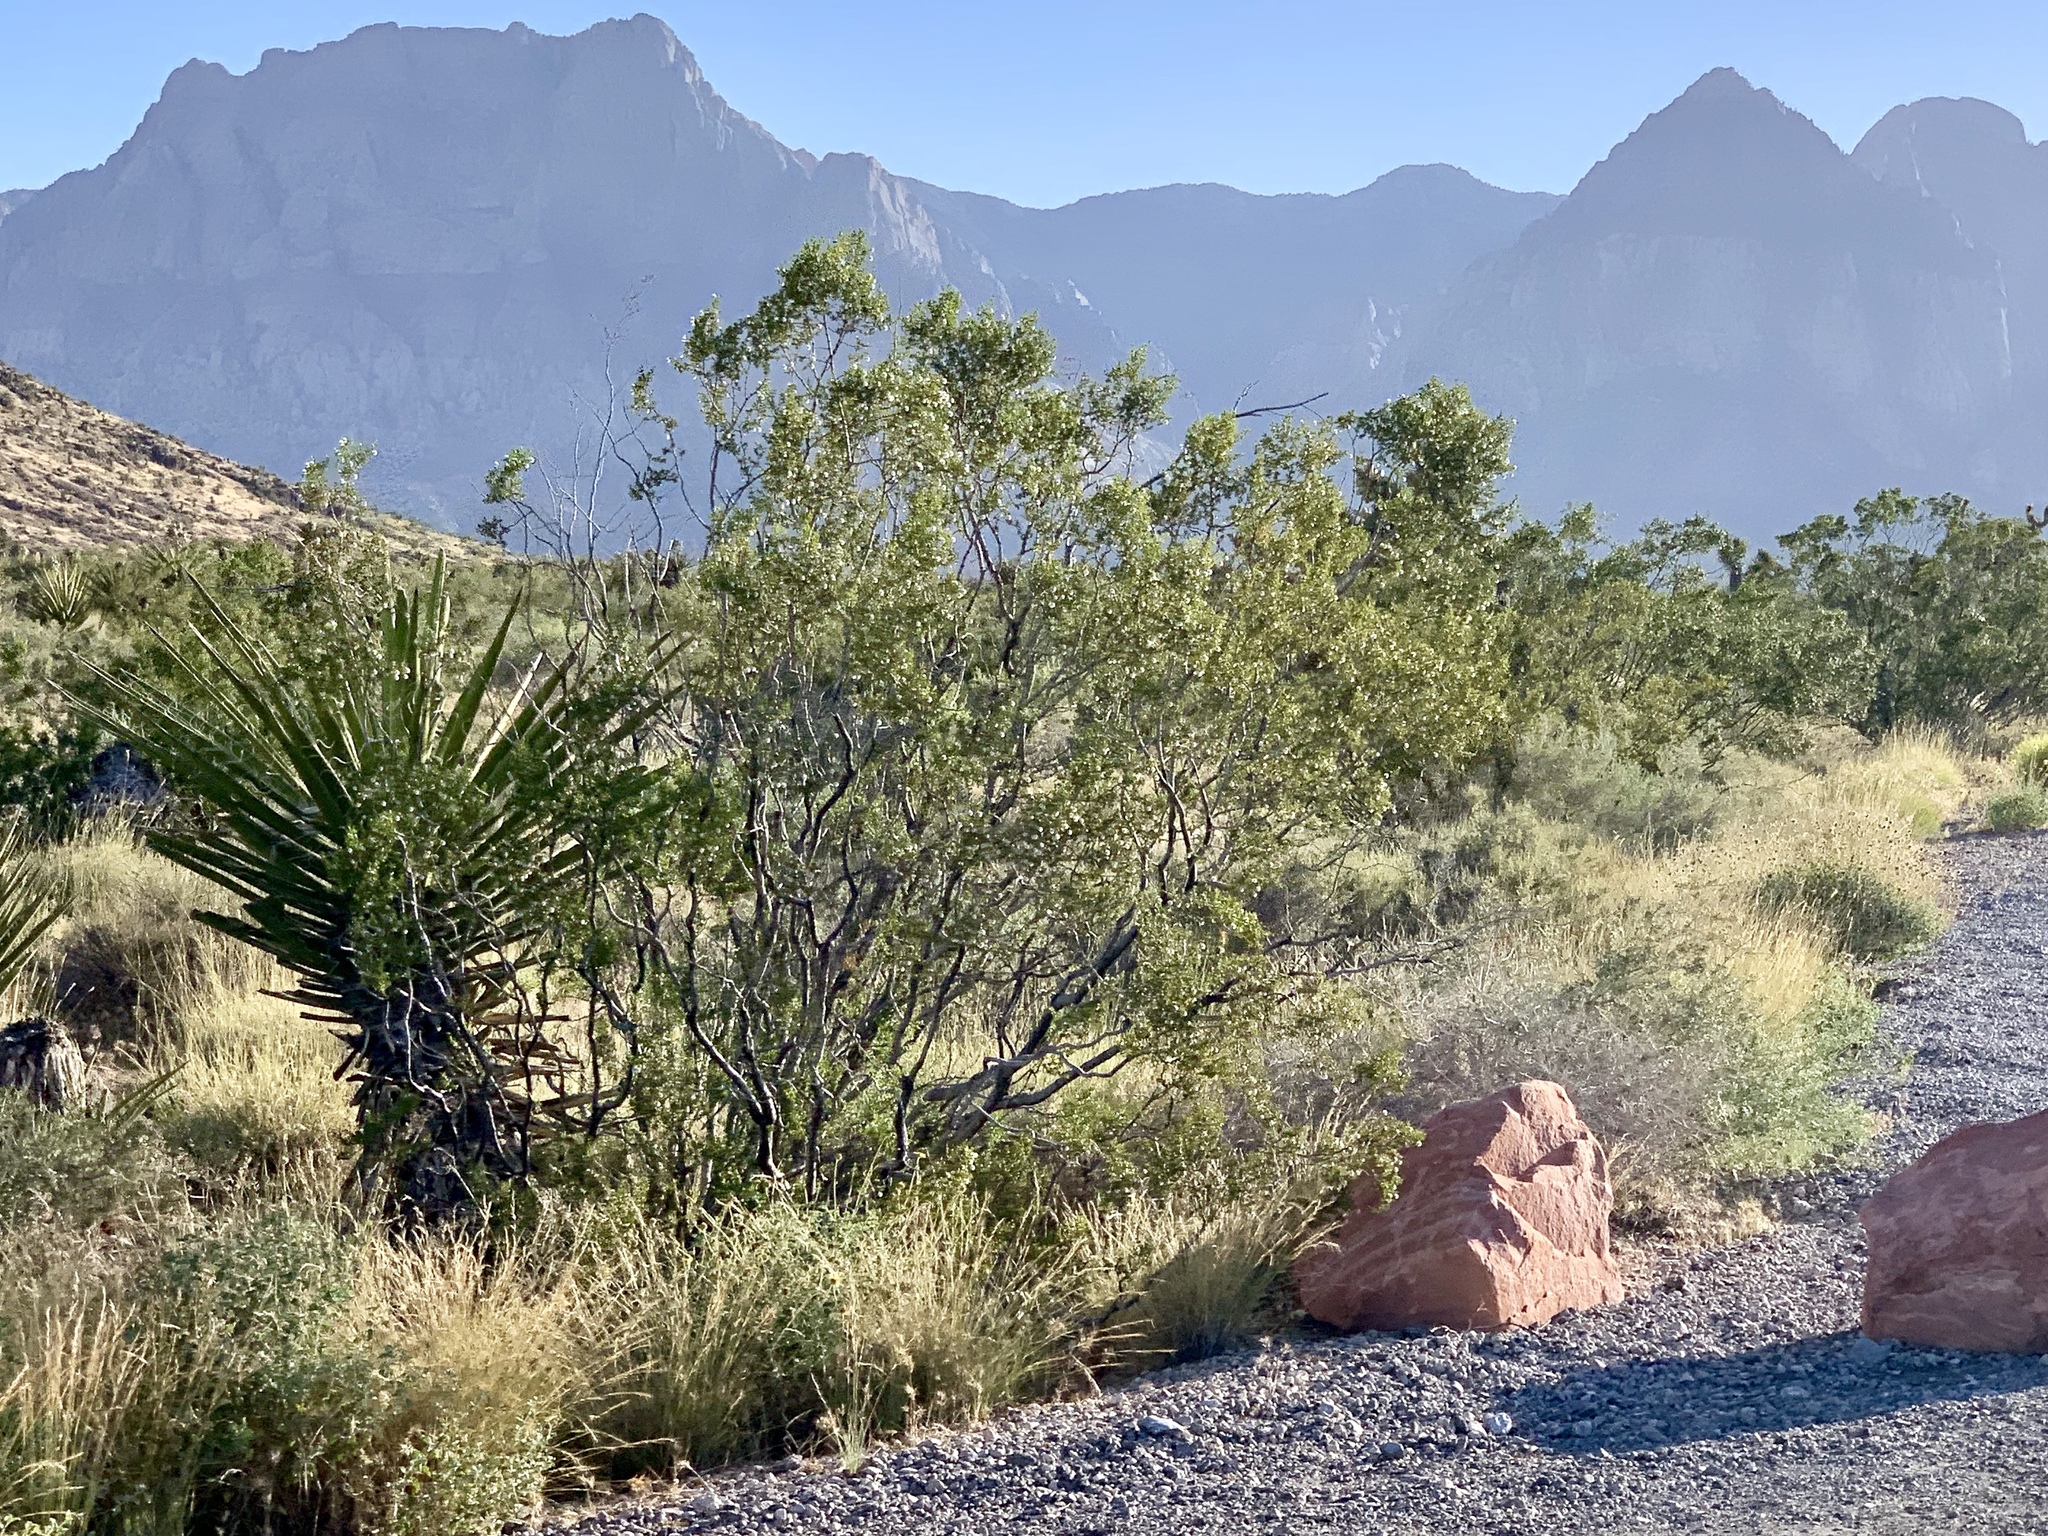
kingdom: Plantae
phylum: Tracheophyta
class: Magnoliopsida
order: Zygophyllales
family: Zygophyllaceae
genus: Larrea
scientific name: Larrea tridentata
